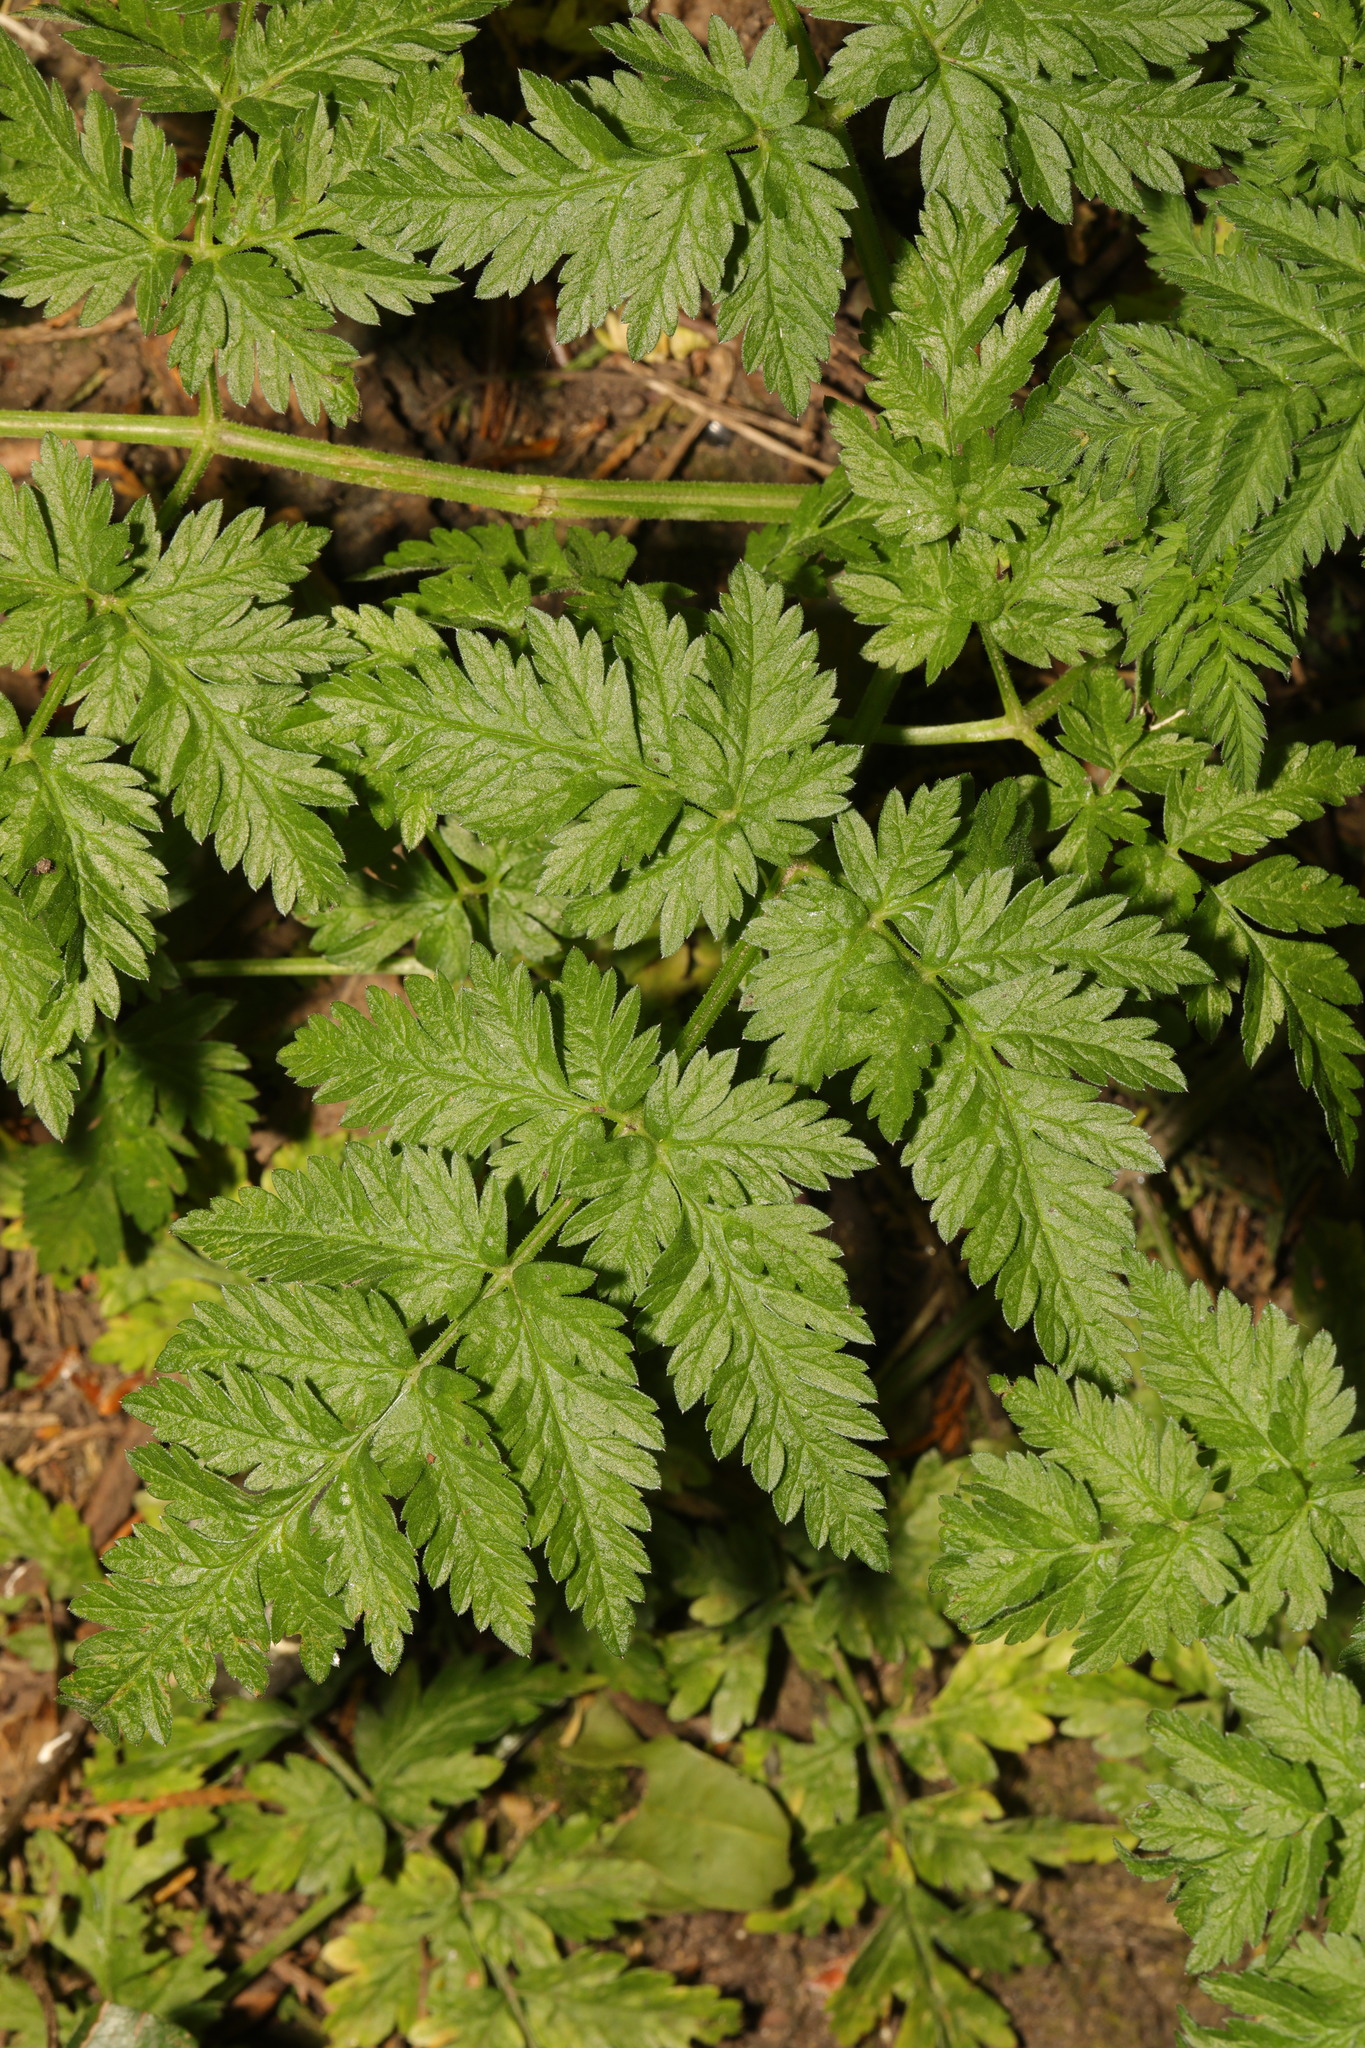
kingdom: Plantae
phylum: Tracheophyta
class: Magnoliopsida
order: Apiales
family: Apiaceae
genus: Anthriscus
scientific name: Anthriscus sylvestris
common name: Cow parsley
